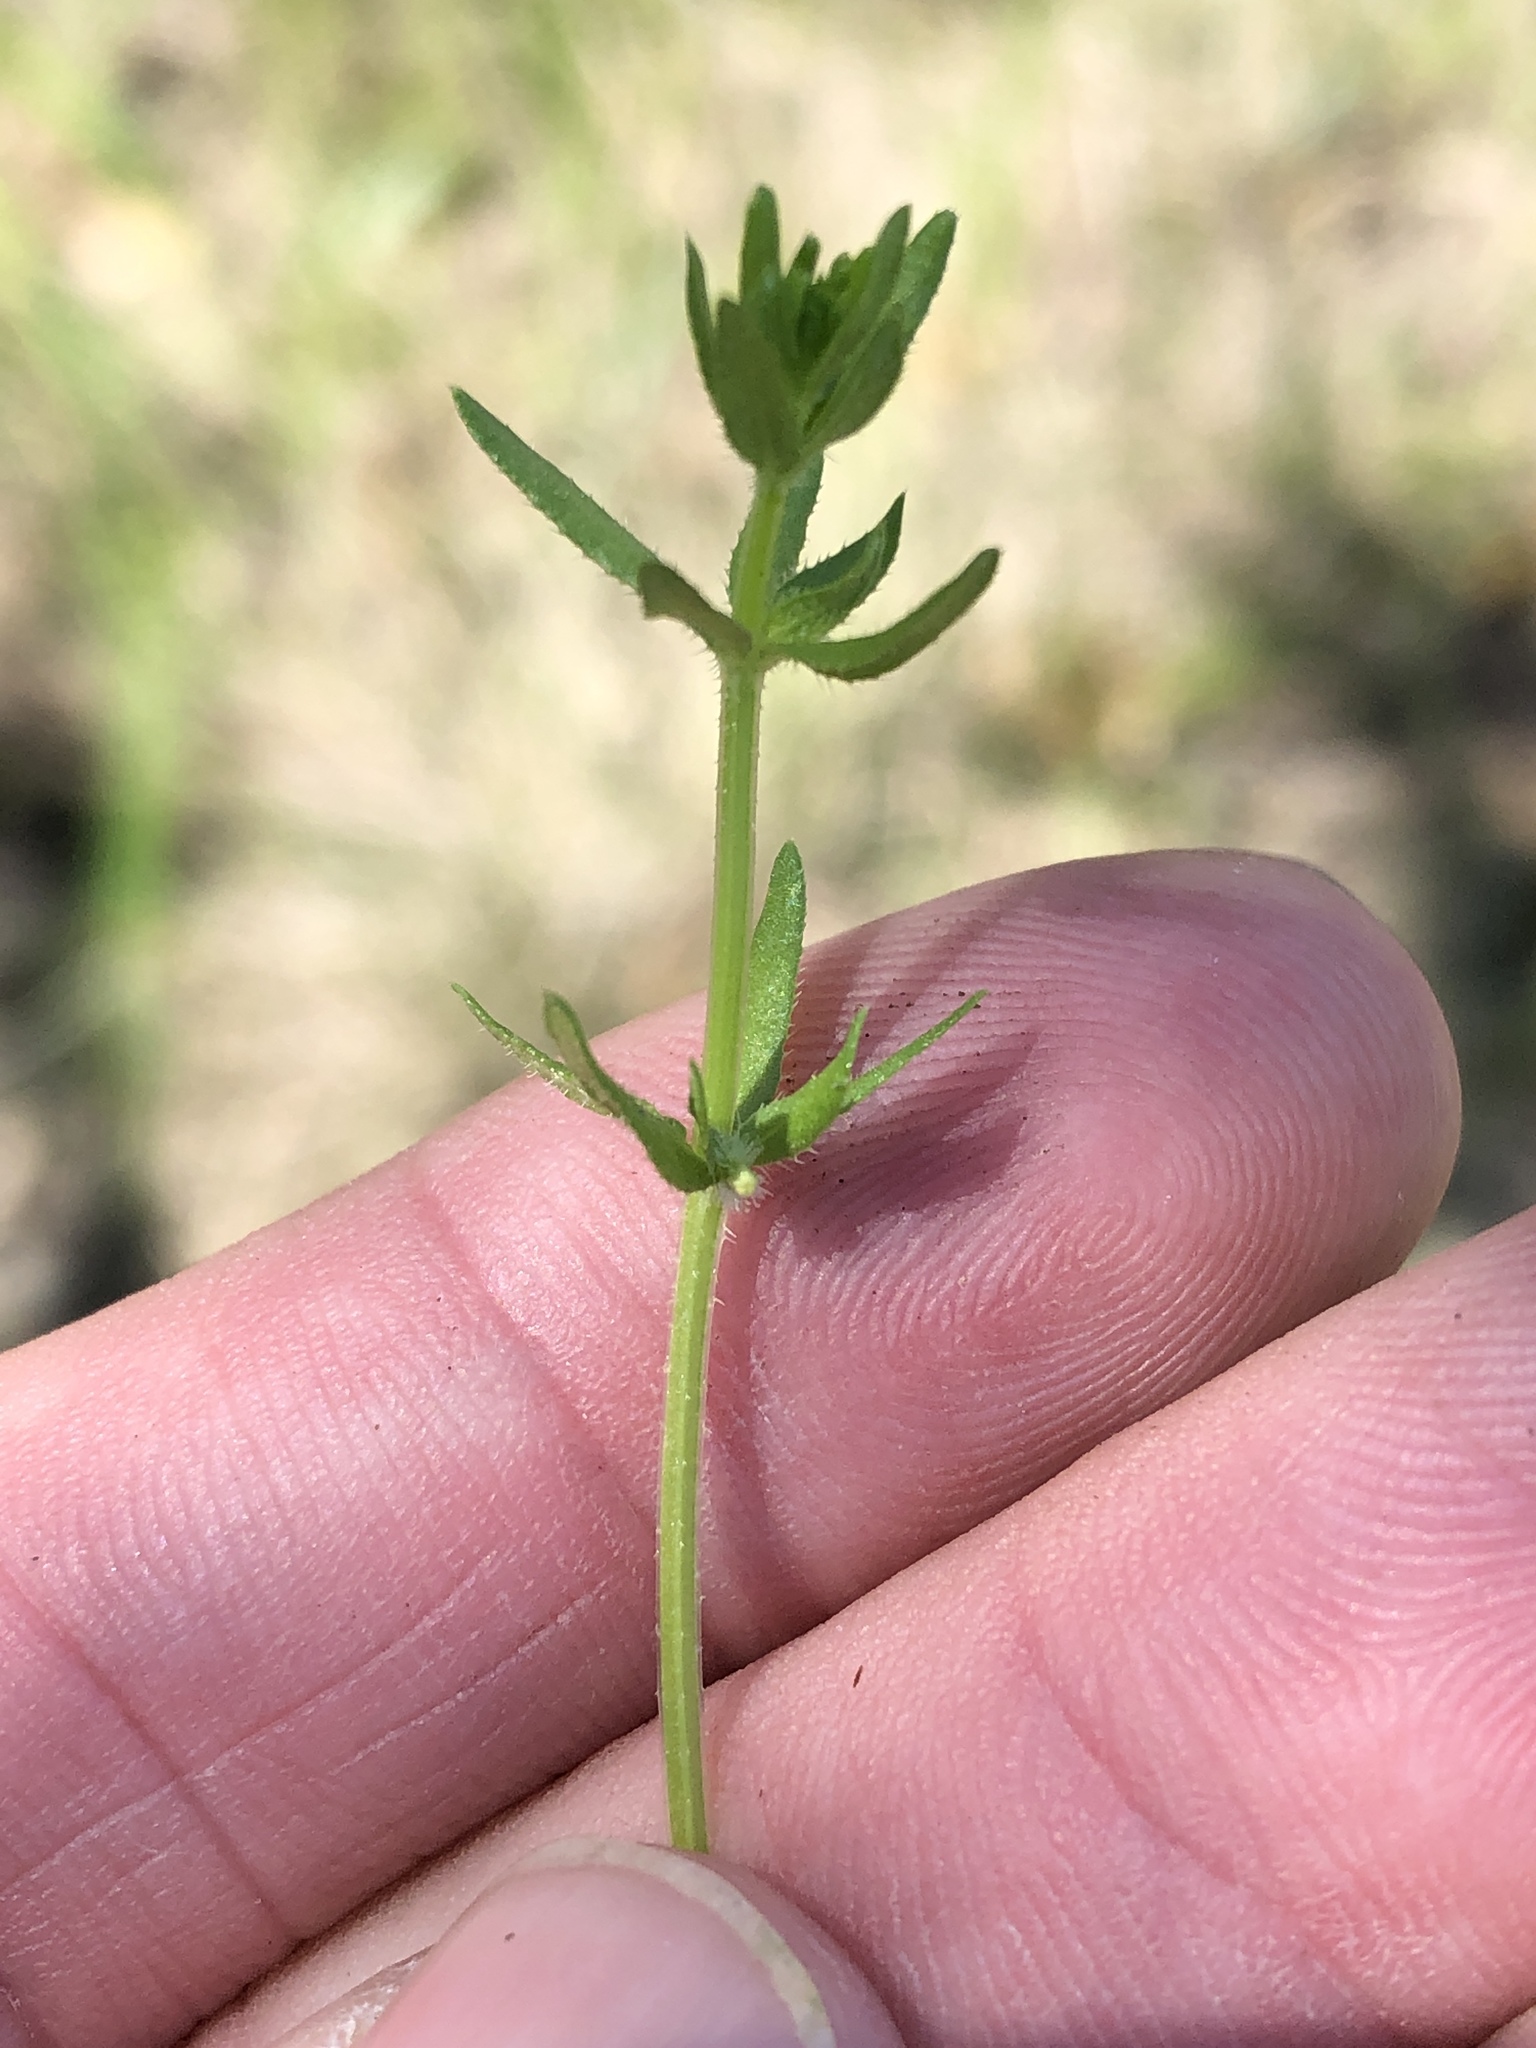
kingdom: Plantae
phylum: Tracheophyta
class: Magnoliopsida
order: Gentianales
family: Rubiaceae
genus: Galium
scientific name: Galium virgatum
